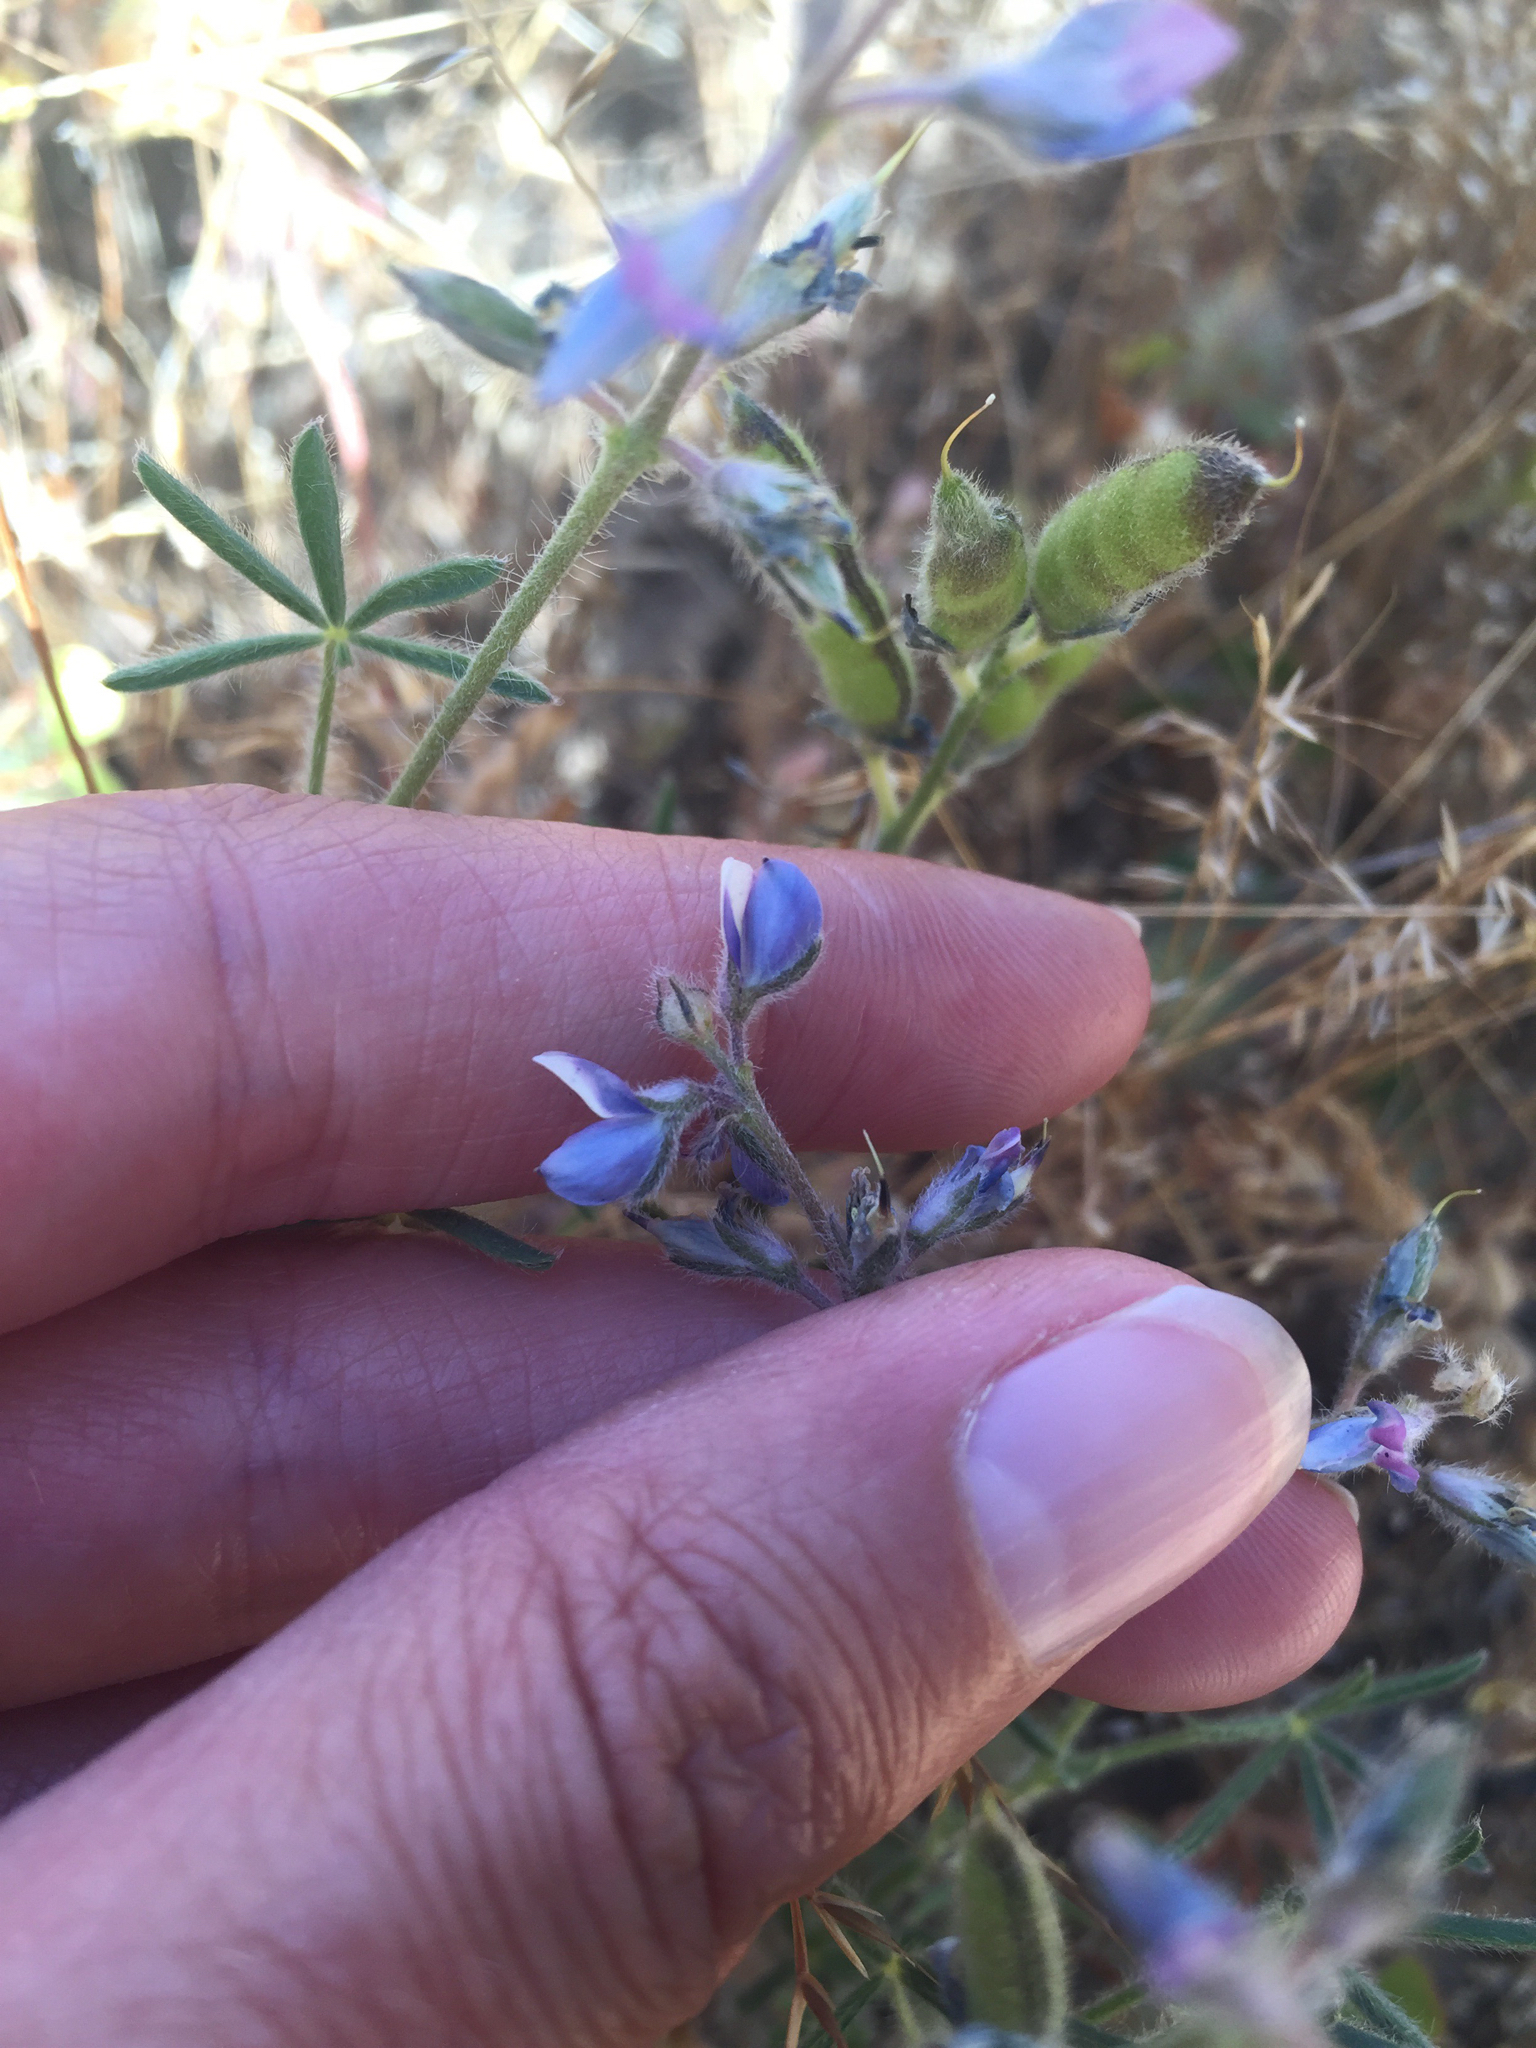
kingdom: Plantae
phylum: Tracheophyta
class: Magnoliopsida
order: Fabales
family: Fabaceae
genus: Lupinus
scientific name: Lupinus bicolor
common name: Miniature lupine
